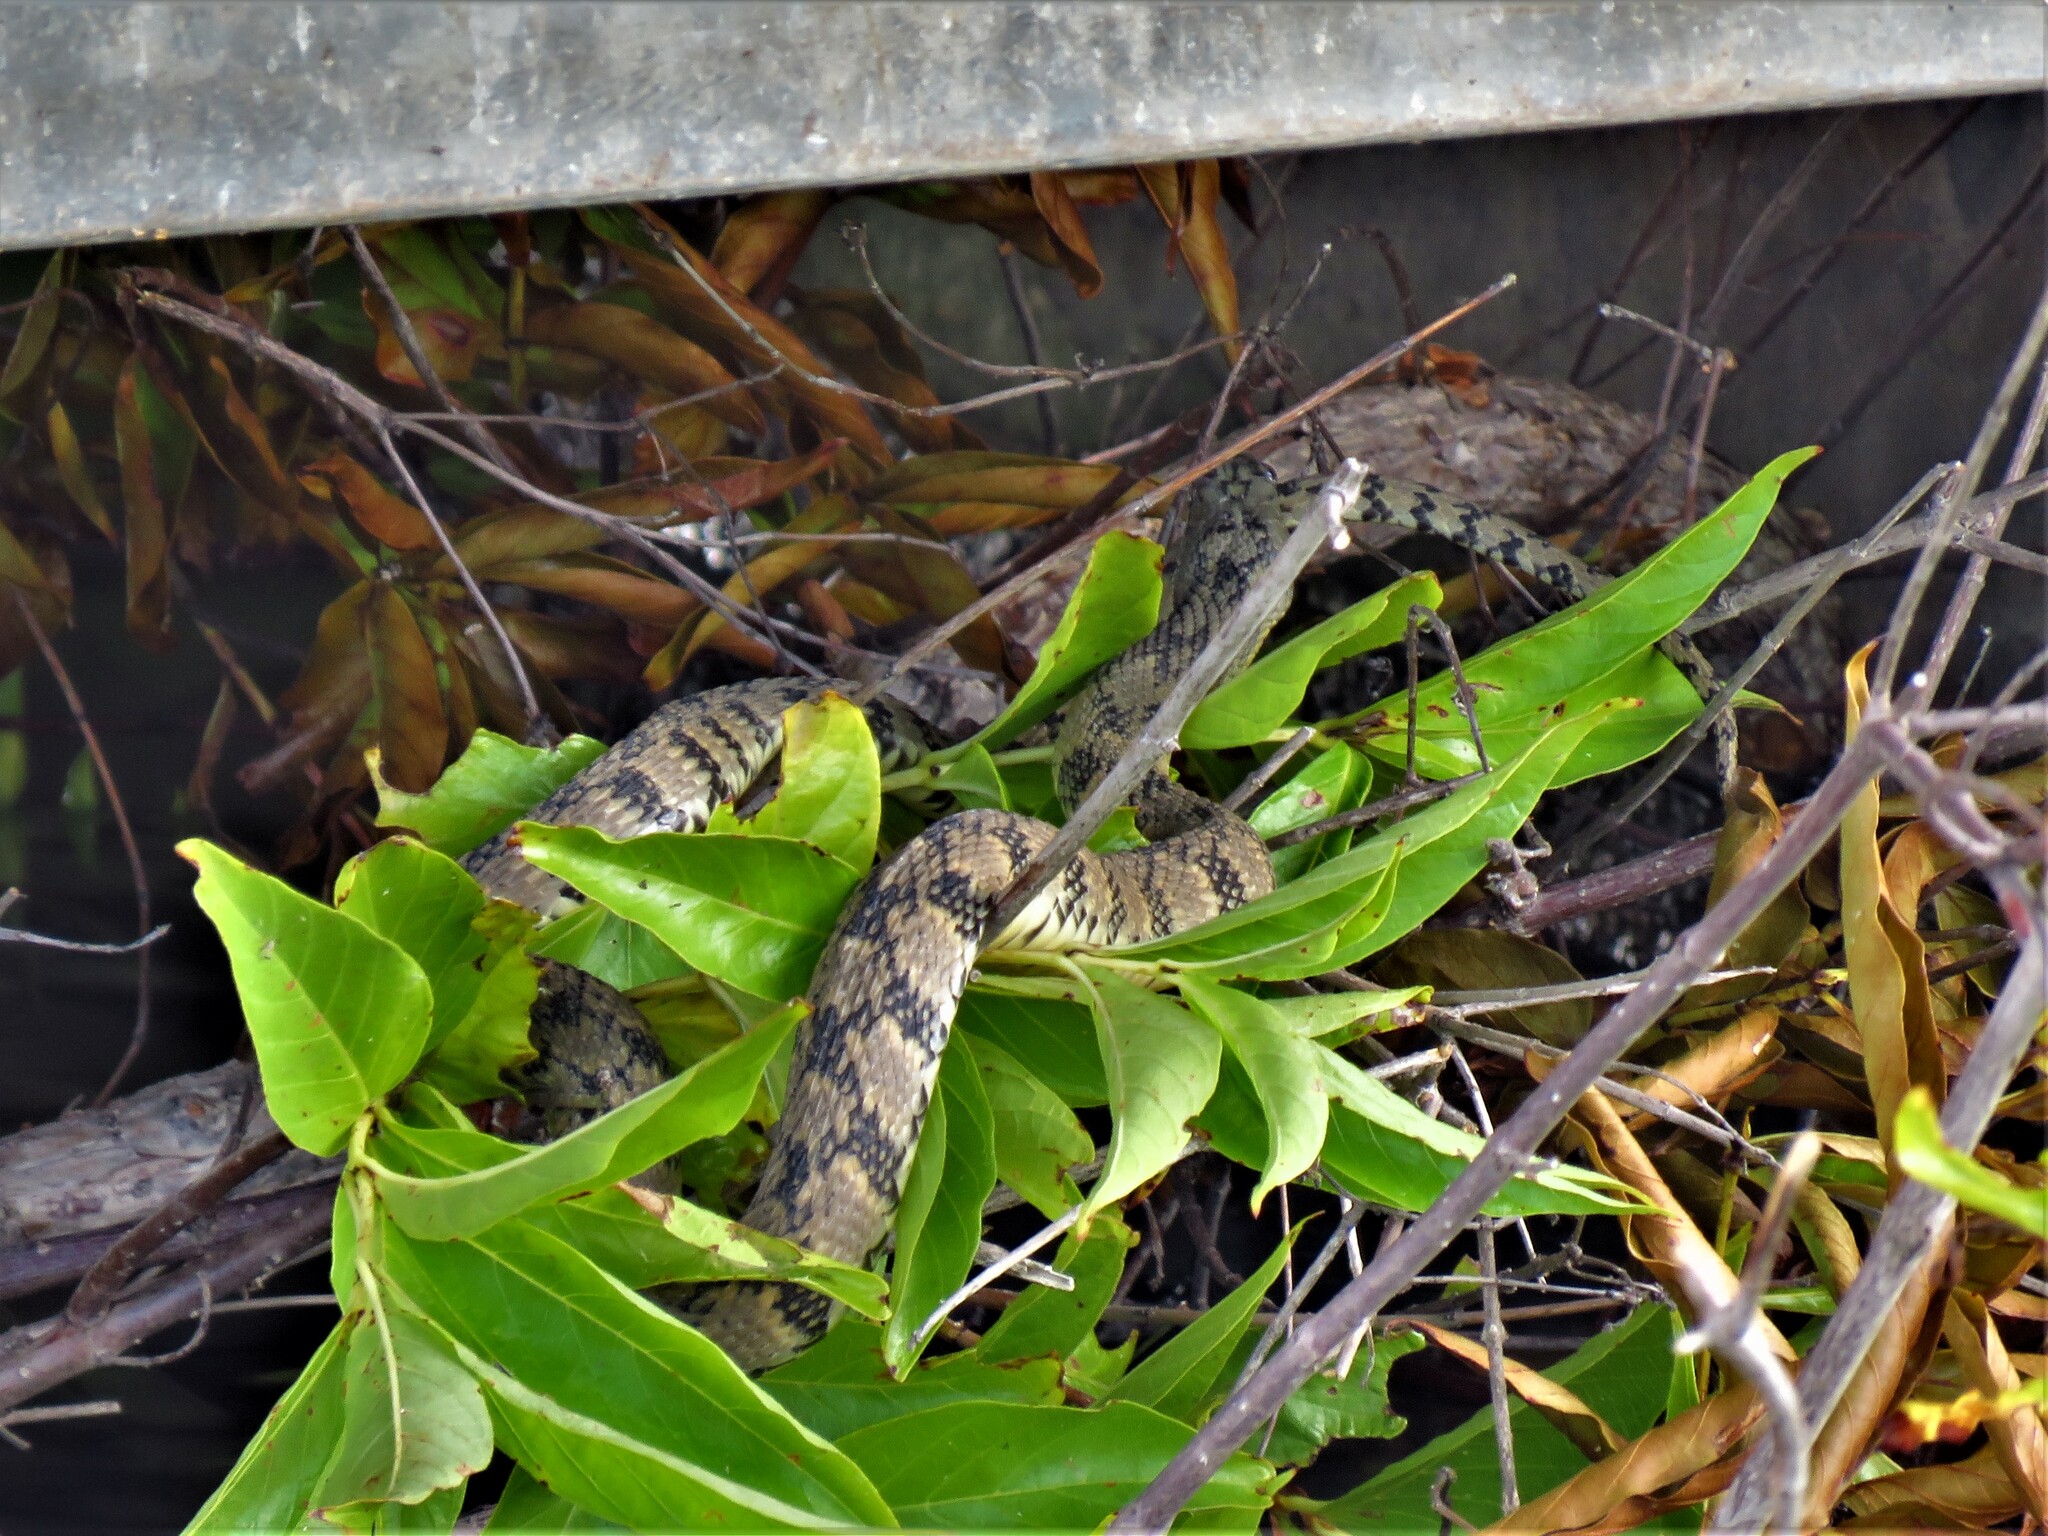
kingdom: Animalia
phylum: Chordata
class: Squamata
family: Colubridae
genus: Nerodia
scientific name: Nerodia rhombifer
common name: Diamondback water snake
